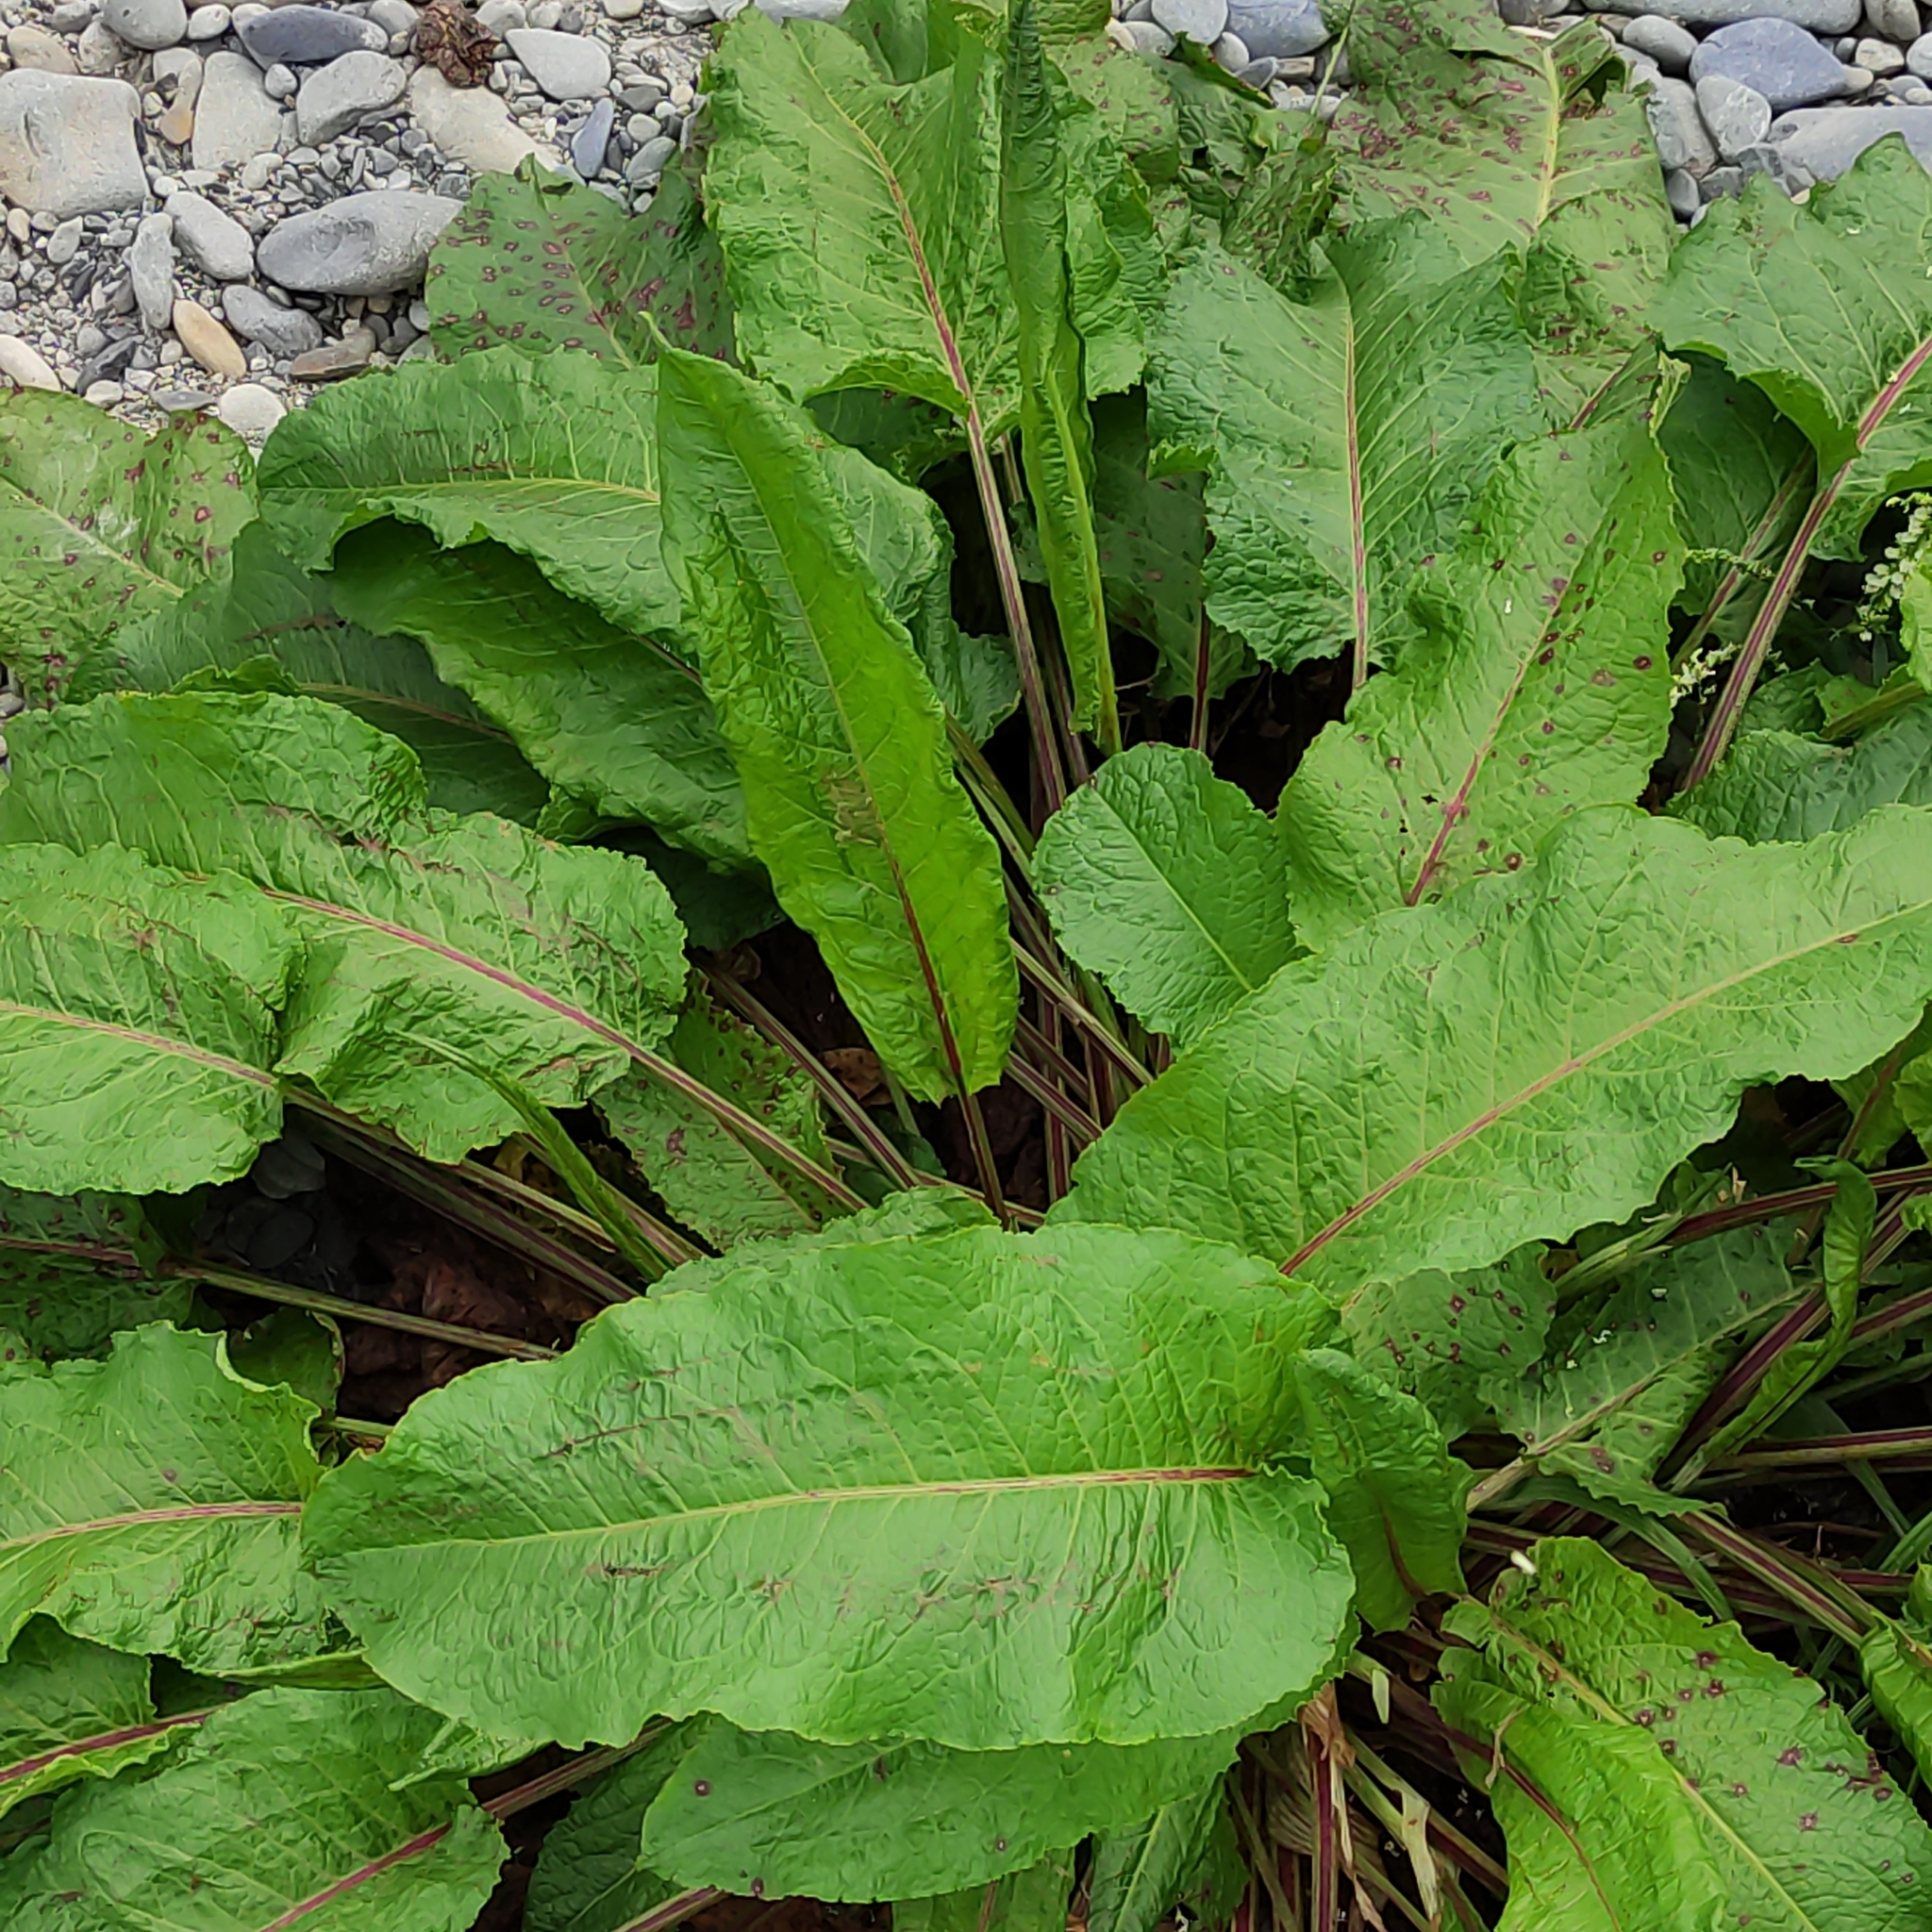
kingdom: Plantae
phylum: Tracheophyta
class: Magnoliopsida
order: Caryophyllales
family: Polygonaceae
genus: Rumex
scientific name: Rumex obtusifolius
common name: Bitter dock
